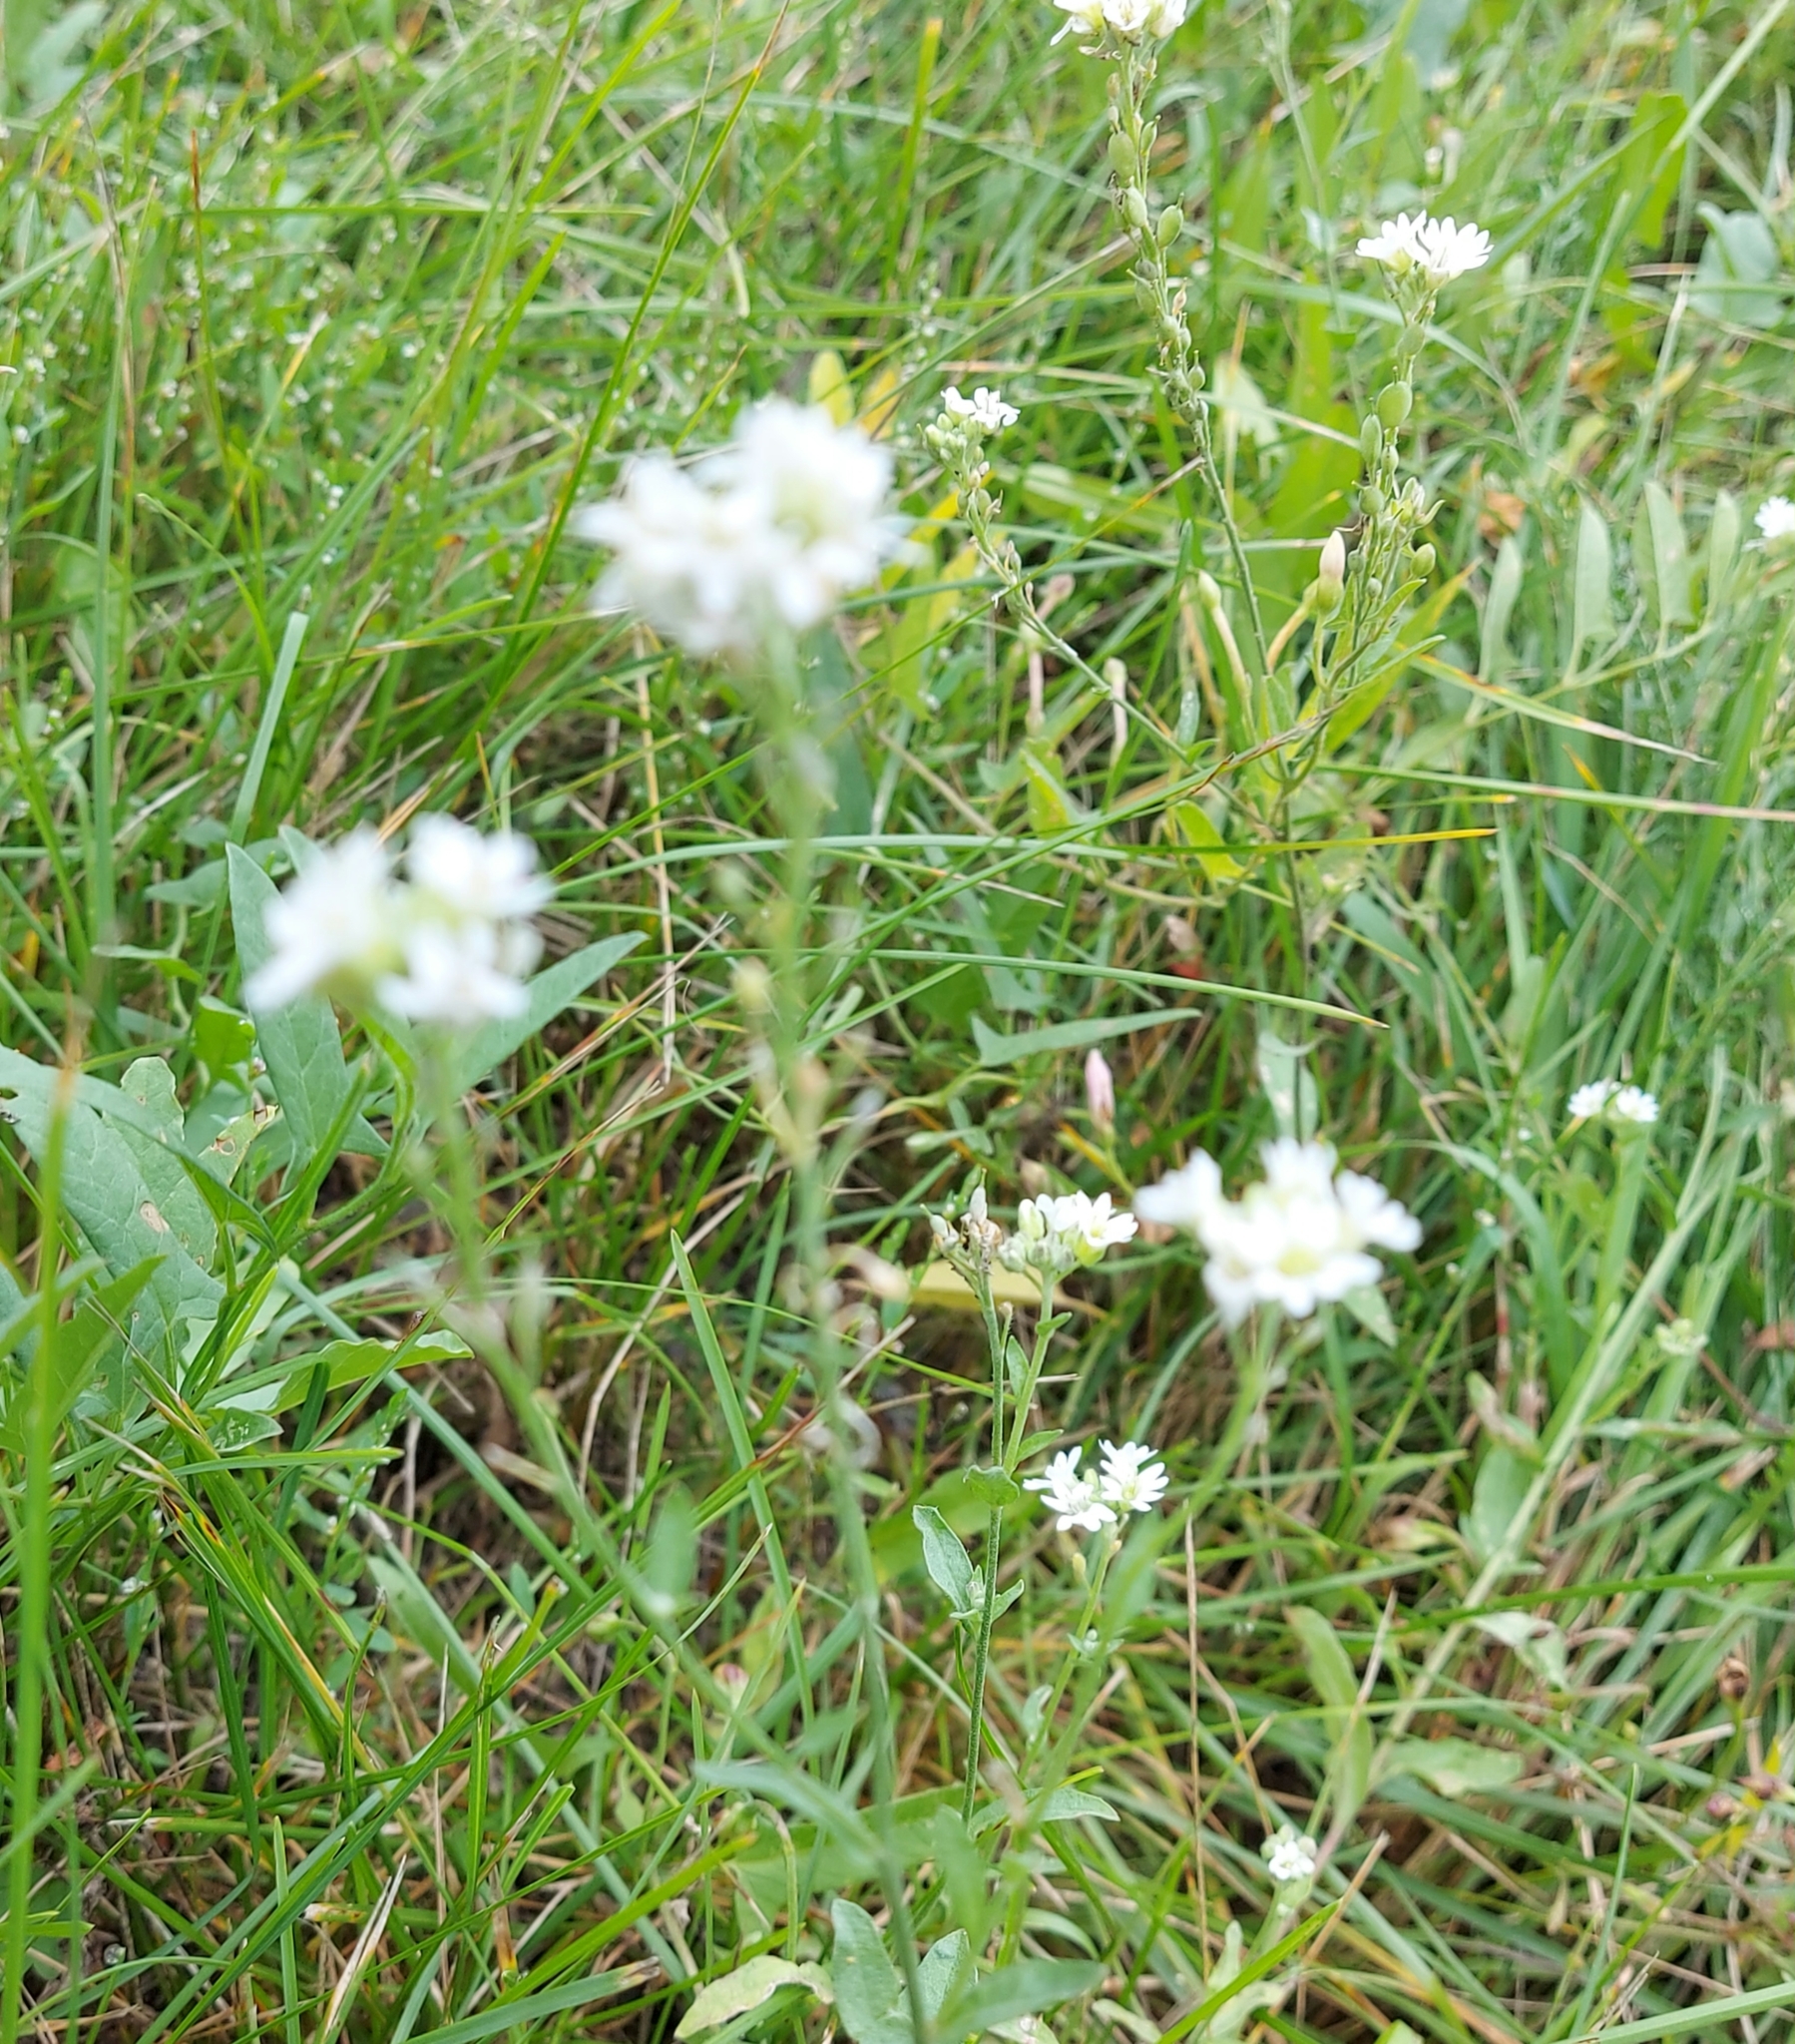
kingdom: Plantae
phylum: Tracheophyta
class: Magnoliopsida
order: Brassicales
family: Brassicaceae
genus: Berteroa
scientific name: Berteroa incana
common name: Hoary alison
